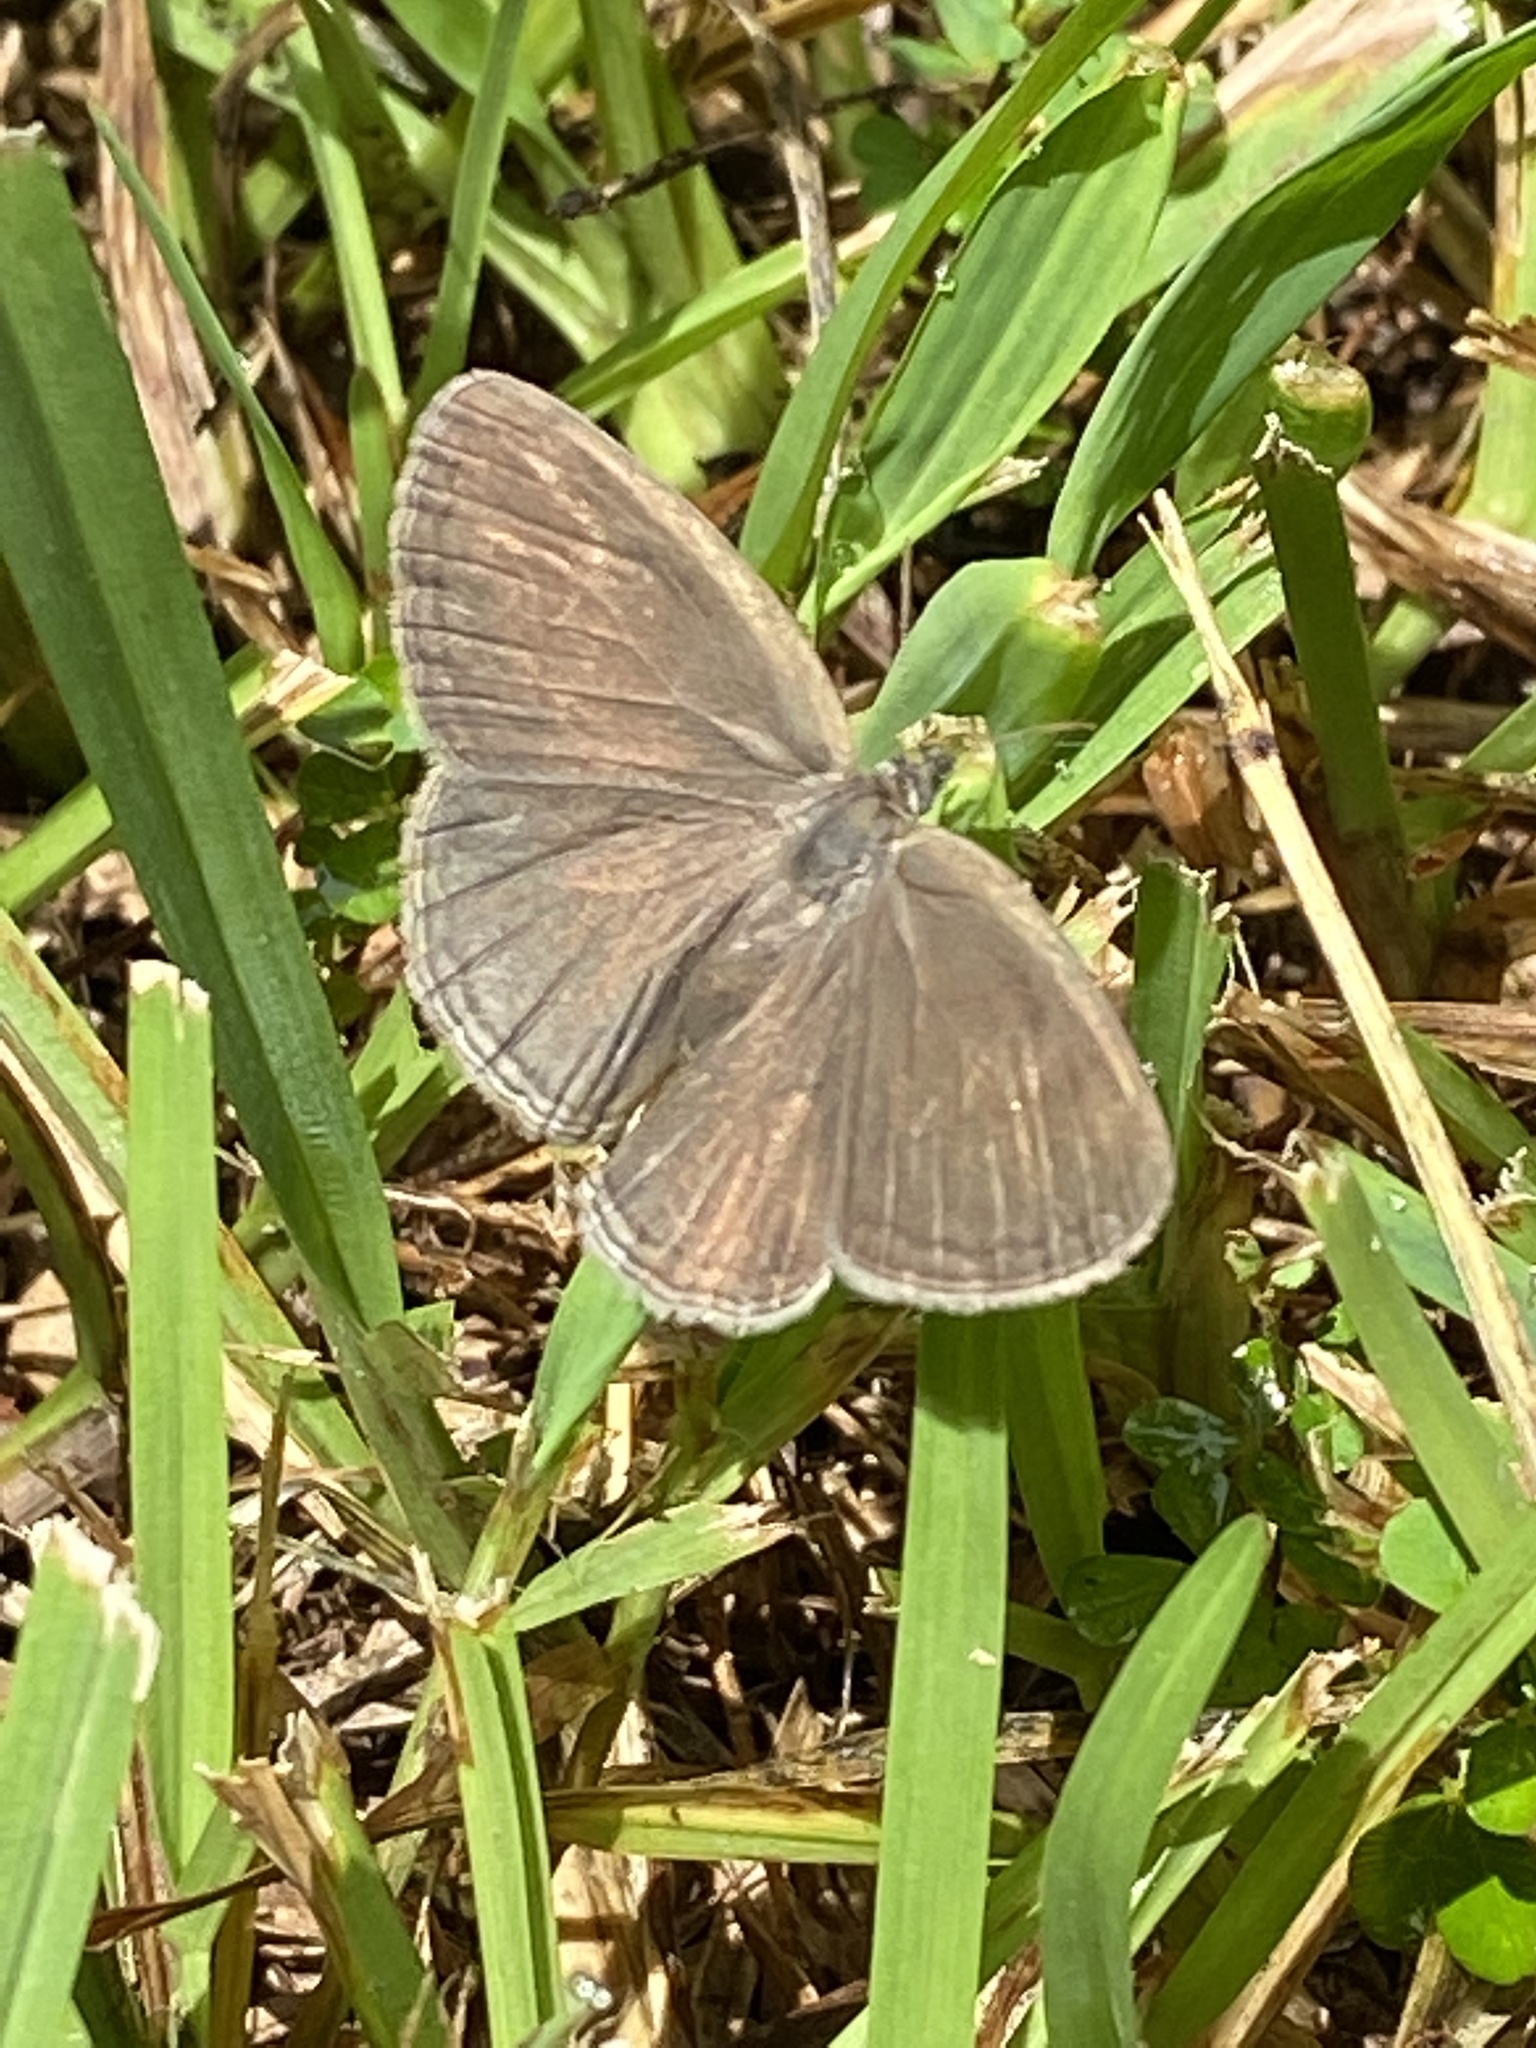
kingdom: Animalia
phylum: Arthropoda
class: Insecta
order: Lepidoptera
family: Nymphalidae
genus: Hermeuptychia
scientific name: Hermeuptychia hermes
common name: Hermes satyr
